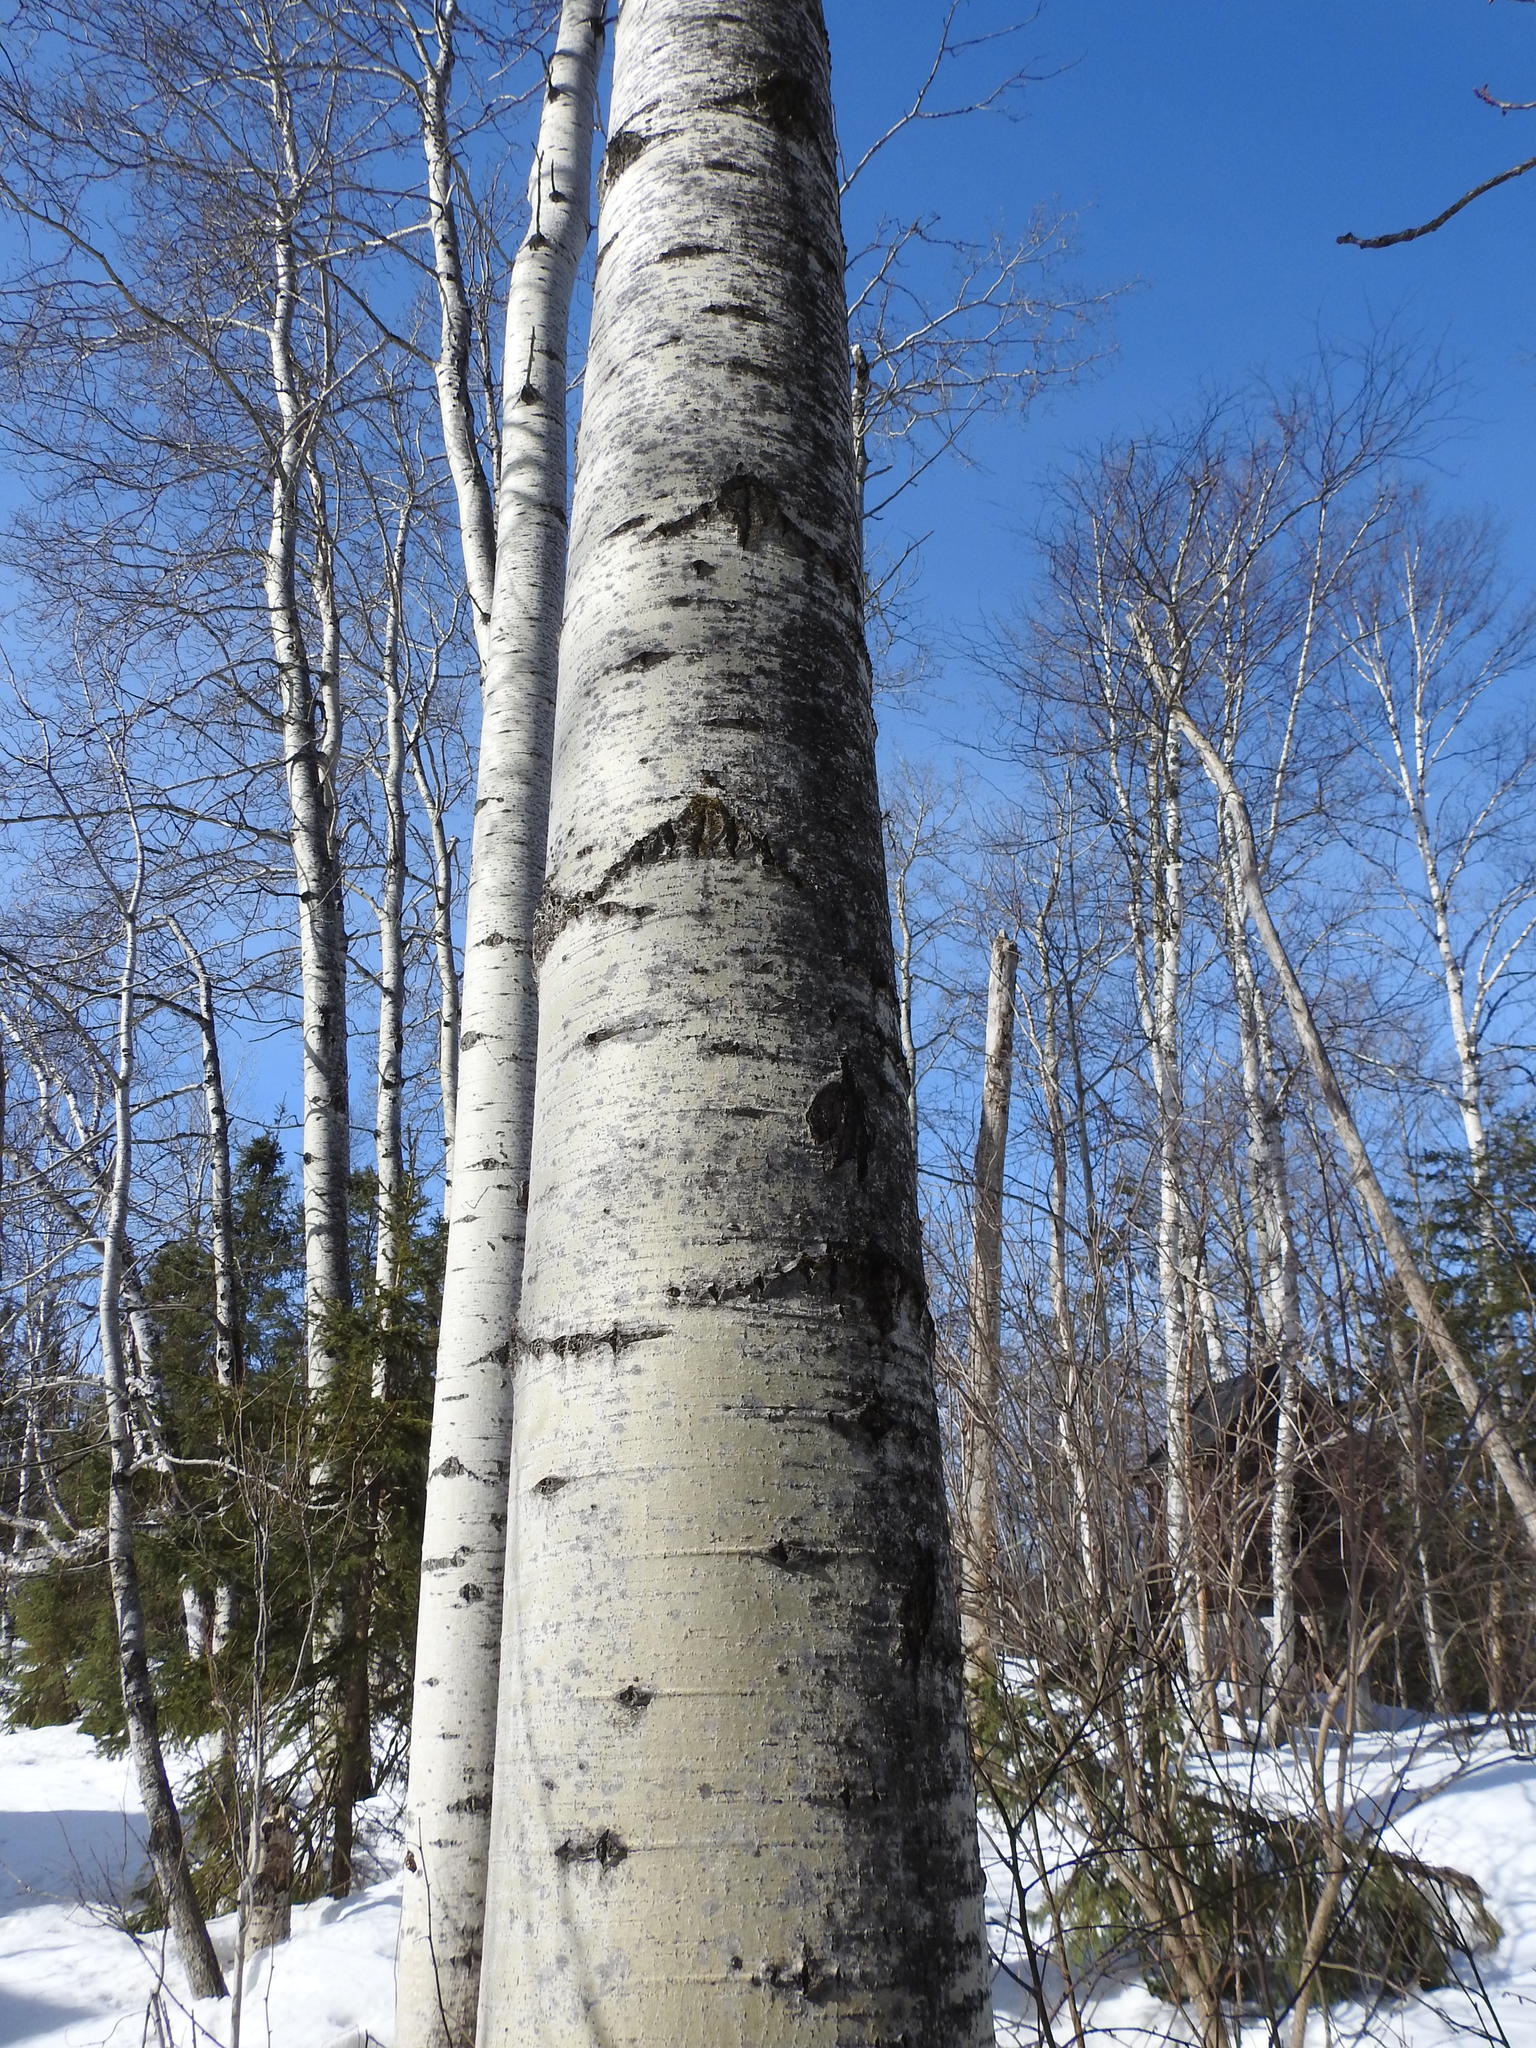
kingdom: Plantae
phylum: Tracheophyta
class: Magnoliopsida
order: Malpighiales
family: Salicaceae
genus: Populus
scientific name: Populus tremuloides
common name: Quaking aspen
